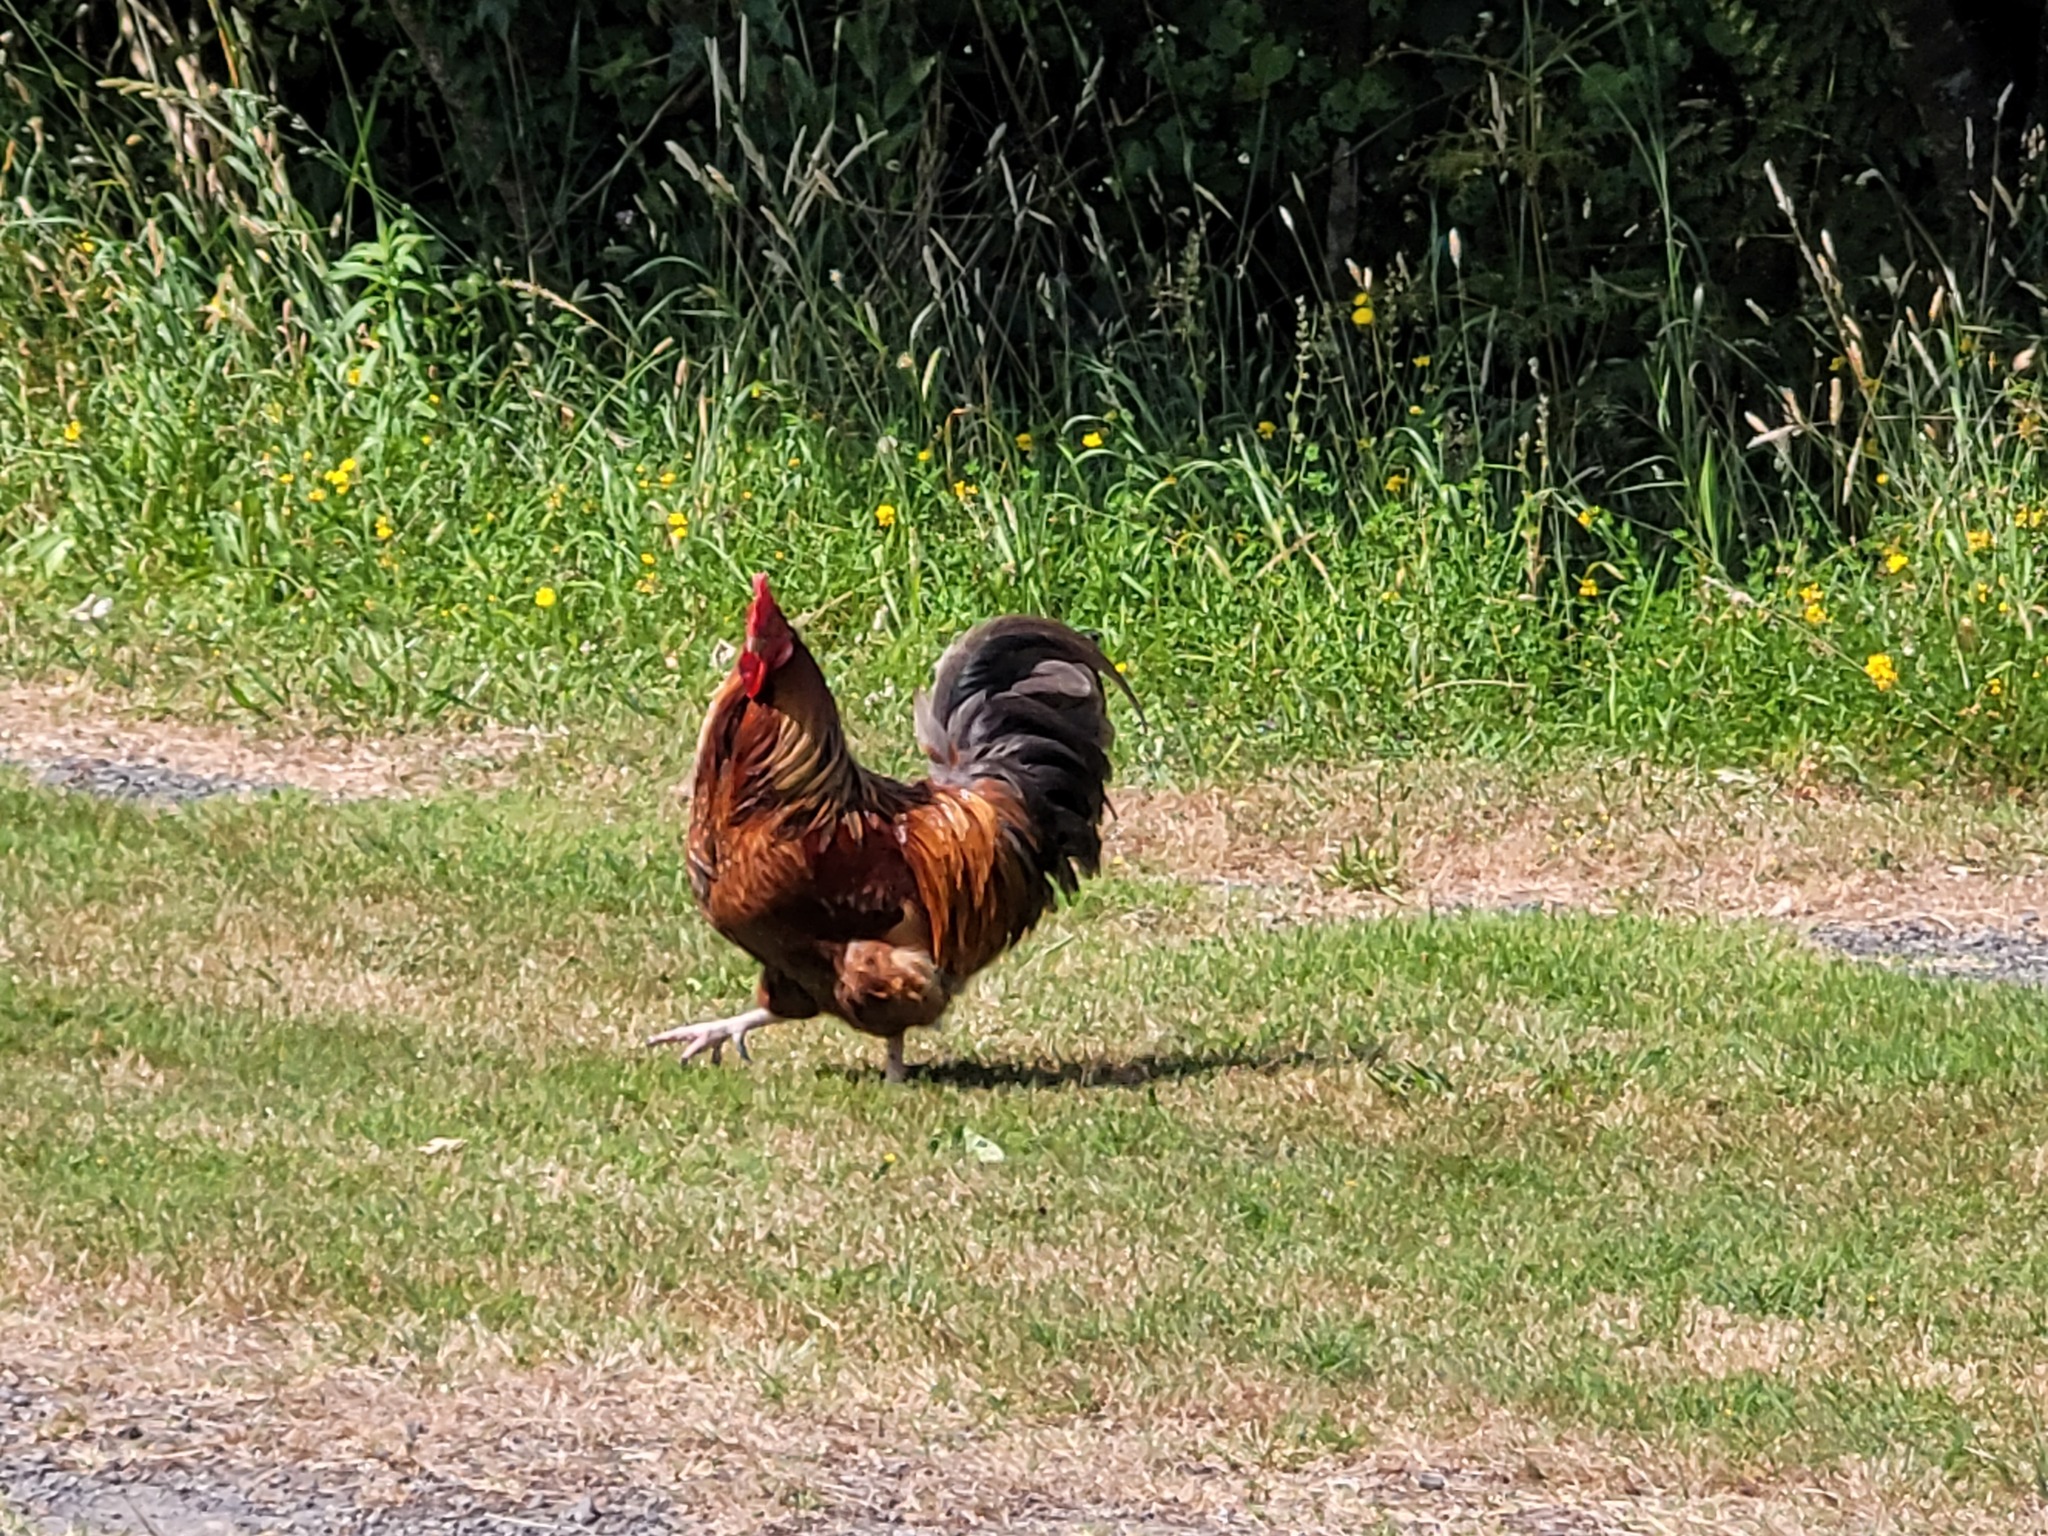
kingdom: Animalia
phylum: Chordata
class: Aves
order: Galliformes
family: Phasianidae
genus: Gallus
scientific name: Gallus gallus
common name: Red junglefowl
